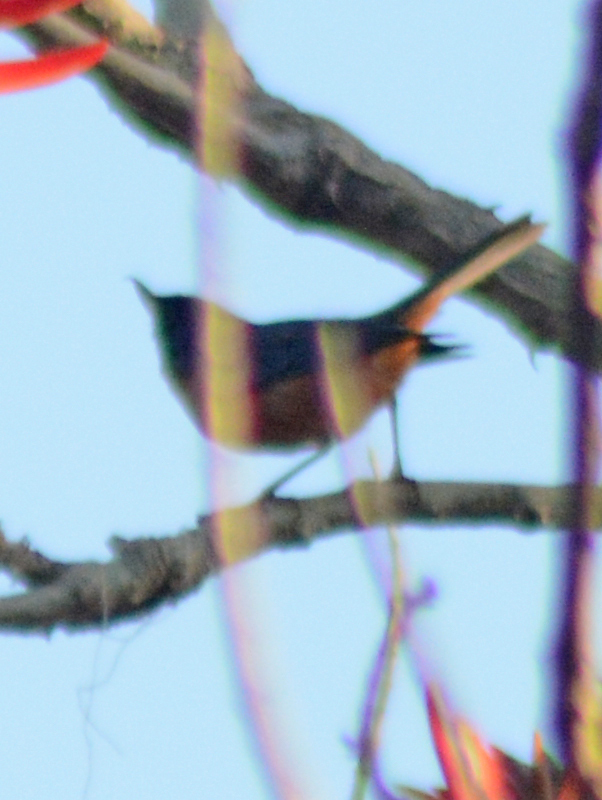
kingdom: Animalia
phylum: Chordata
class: Aves
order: Passeriformes
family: Thraupidae
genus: Diglossa
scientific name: Diglossa baritula
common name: Cinnamon-bellied flowerpiercer
